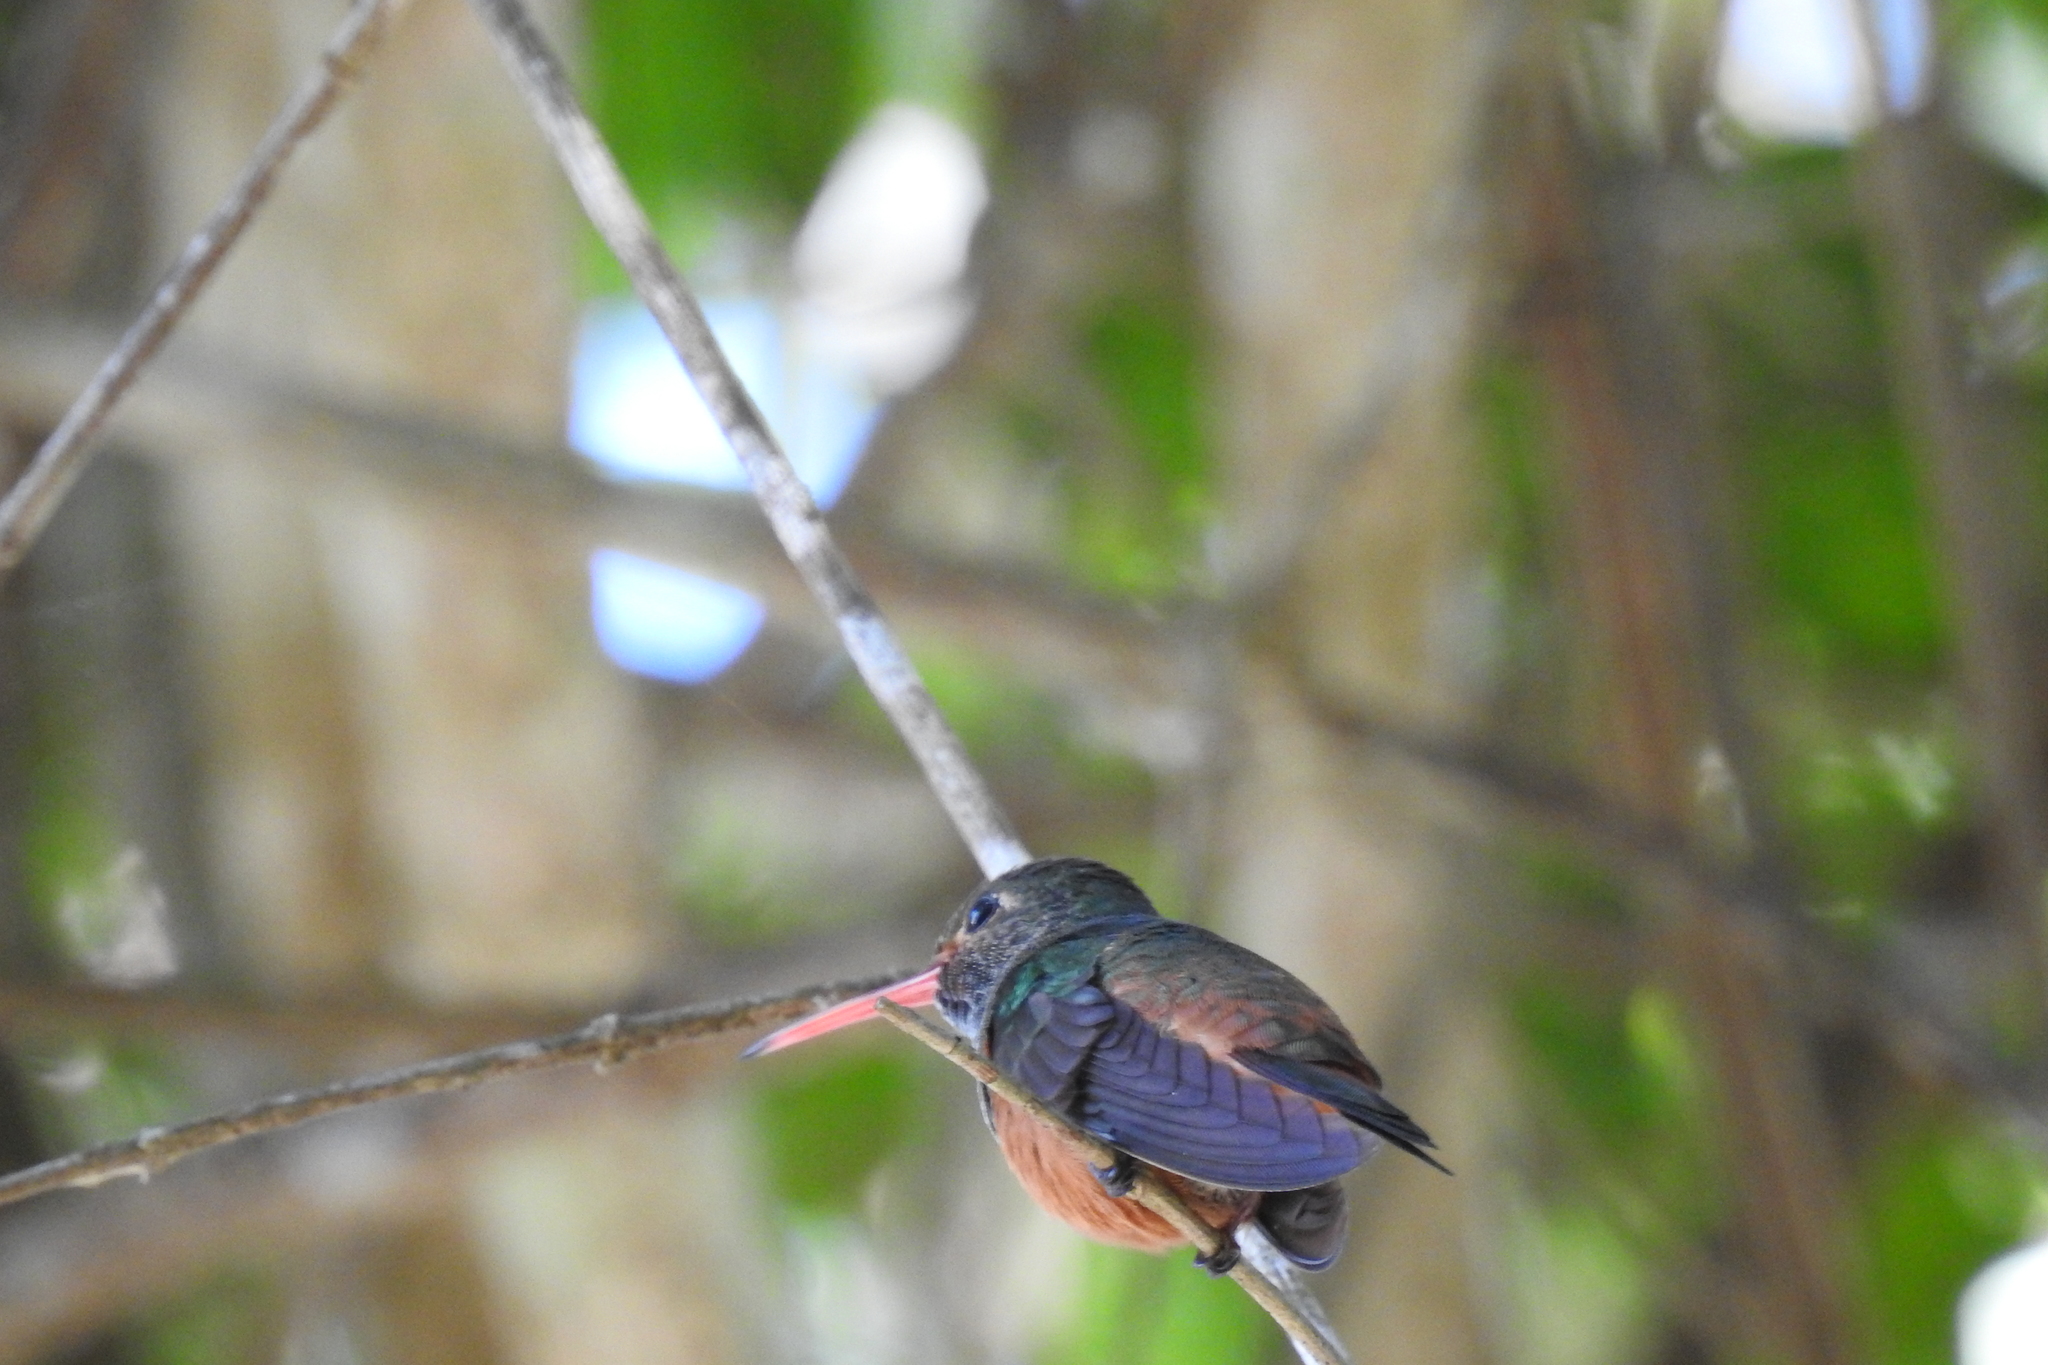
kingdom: Animalia
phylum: Chordata
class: Aves
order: Apodiformes
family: Trochilidae
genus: Amazilia
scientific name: Amazilia yucatanensis
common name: Buff-bellied hummingbird
